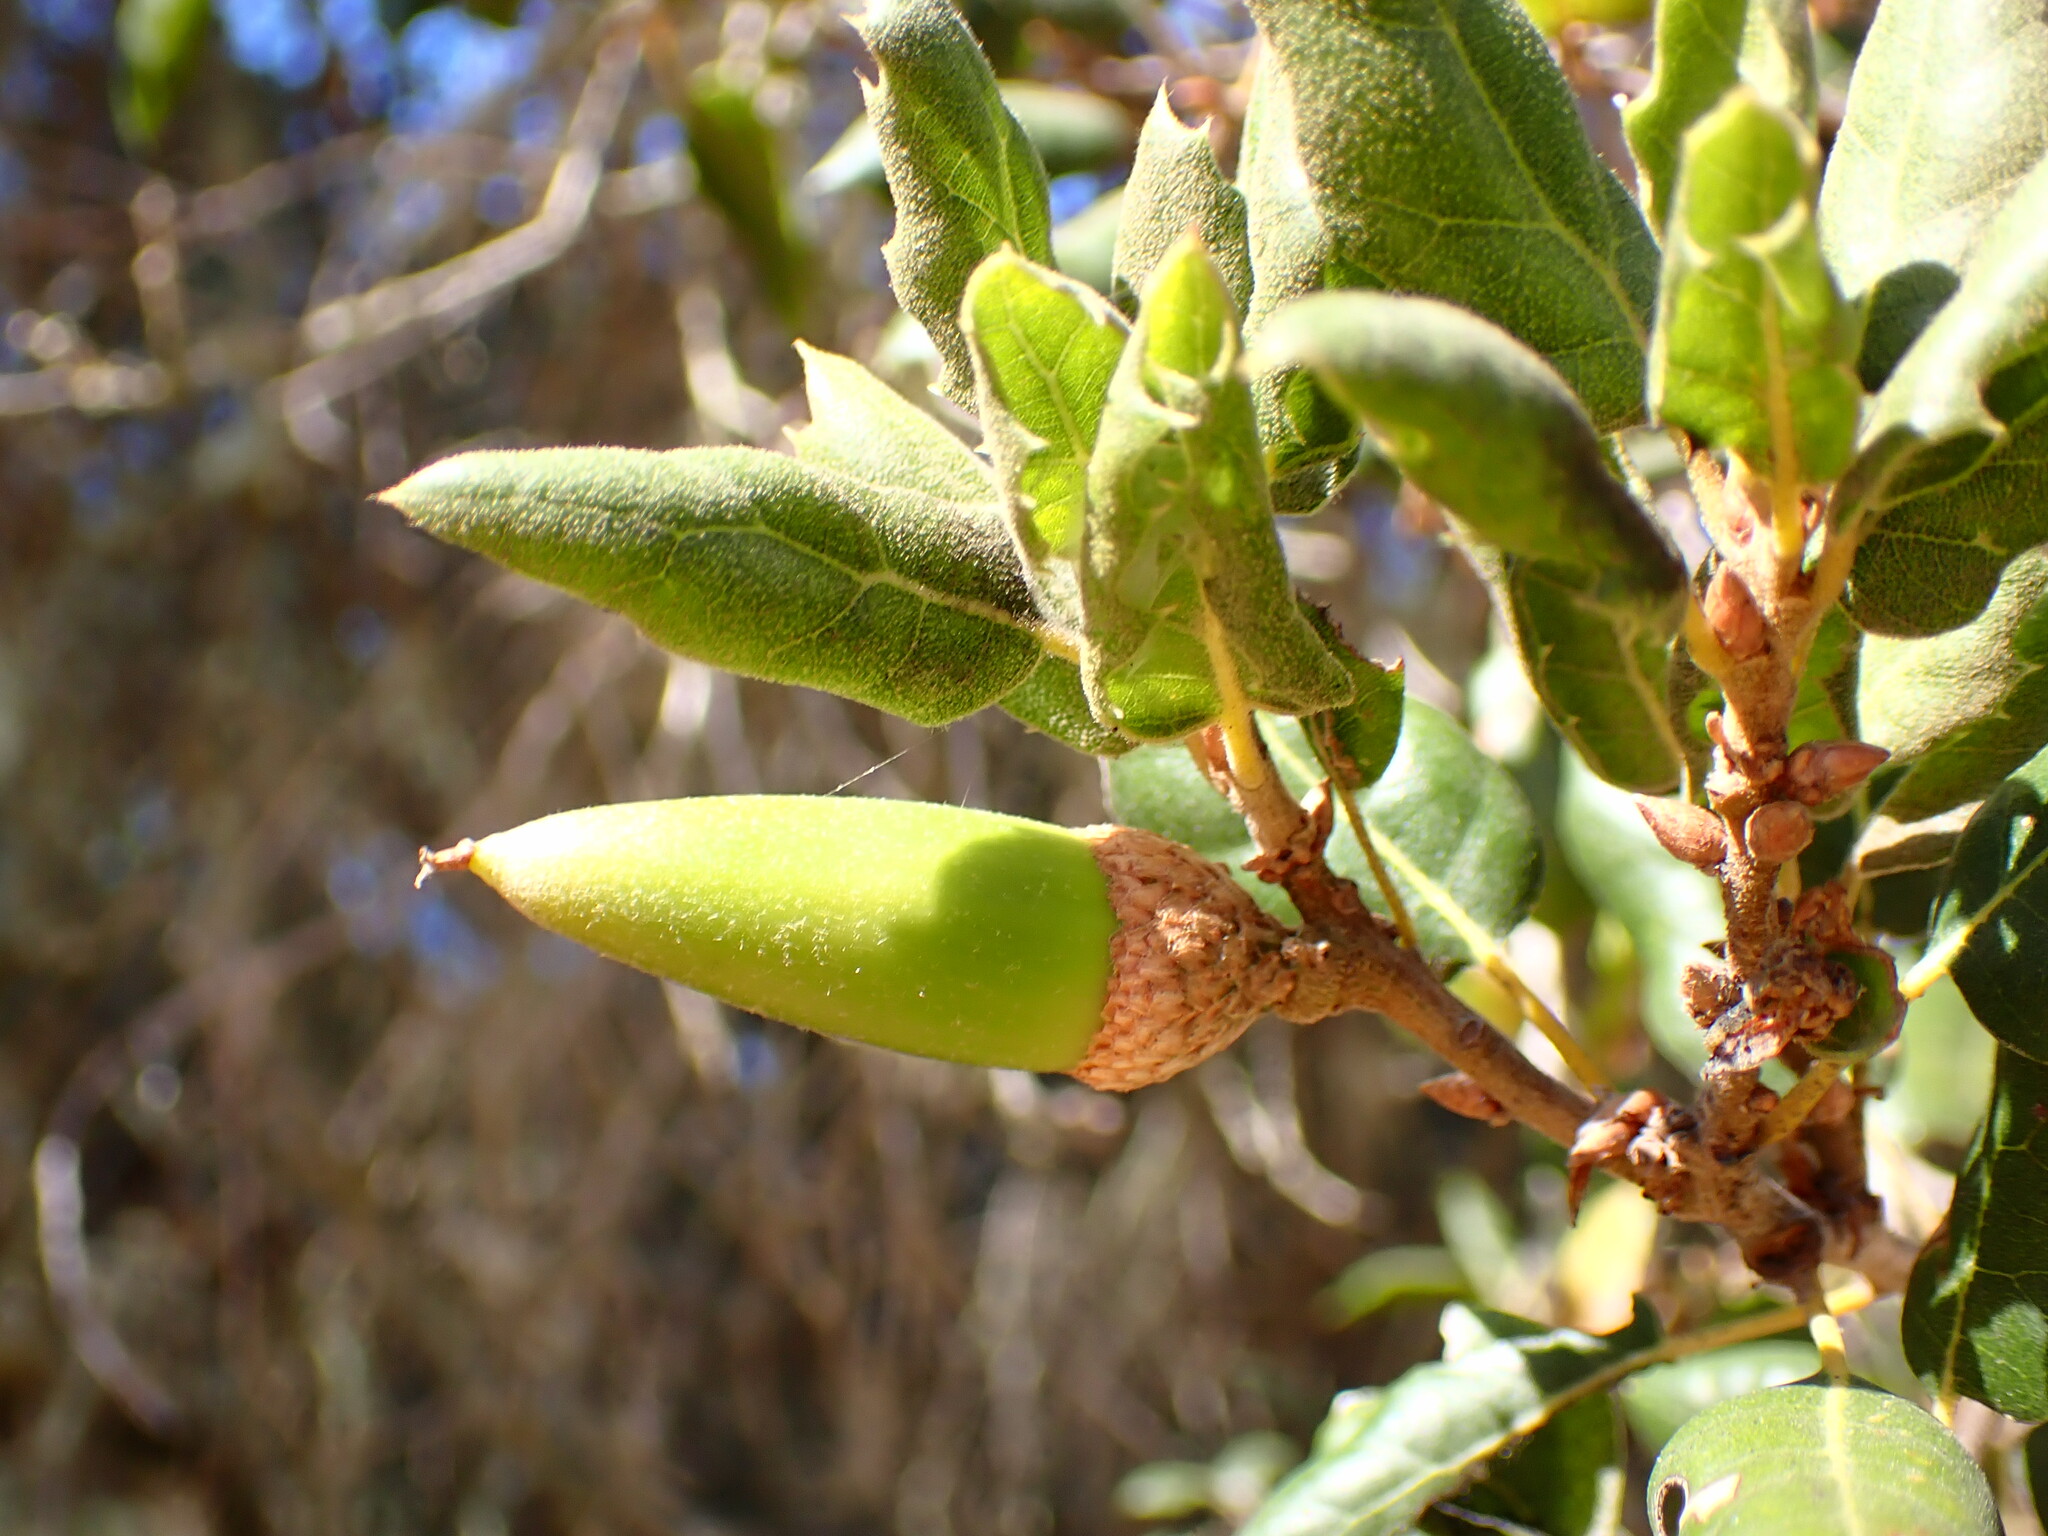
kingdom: Plantae
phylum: Tracheophyta
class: Magnoliopsida
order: Fagales
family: Fagaceae
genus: Quercus
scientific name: Quercus agrifolia
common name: California live oak
